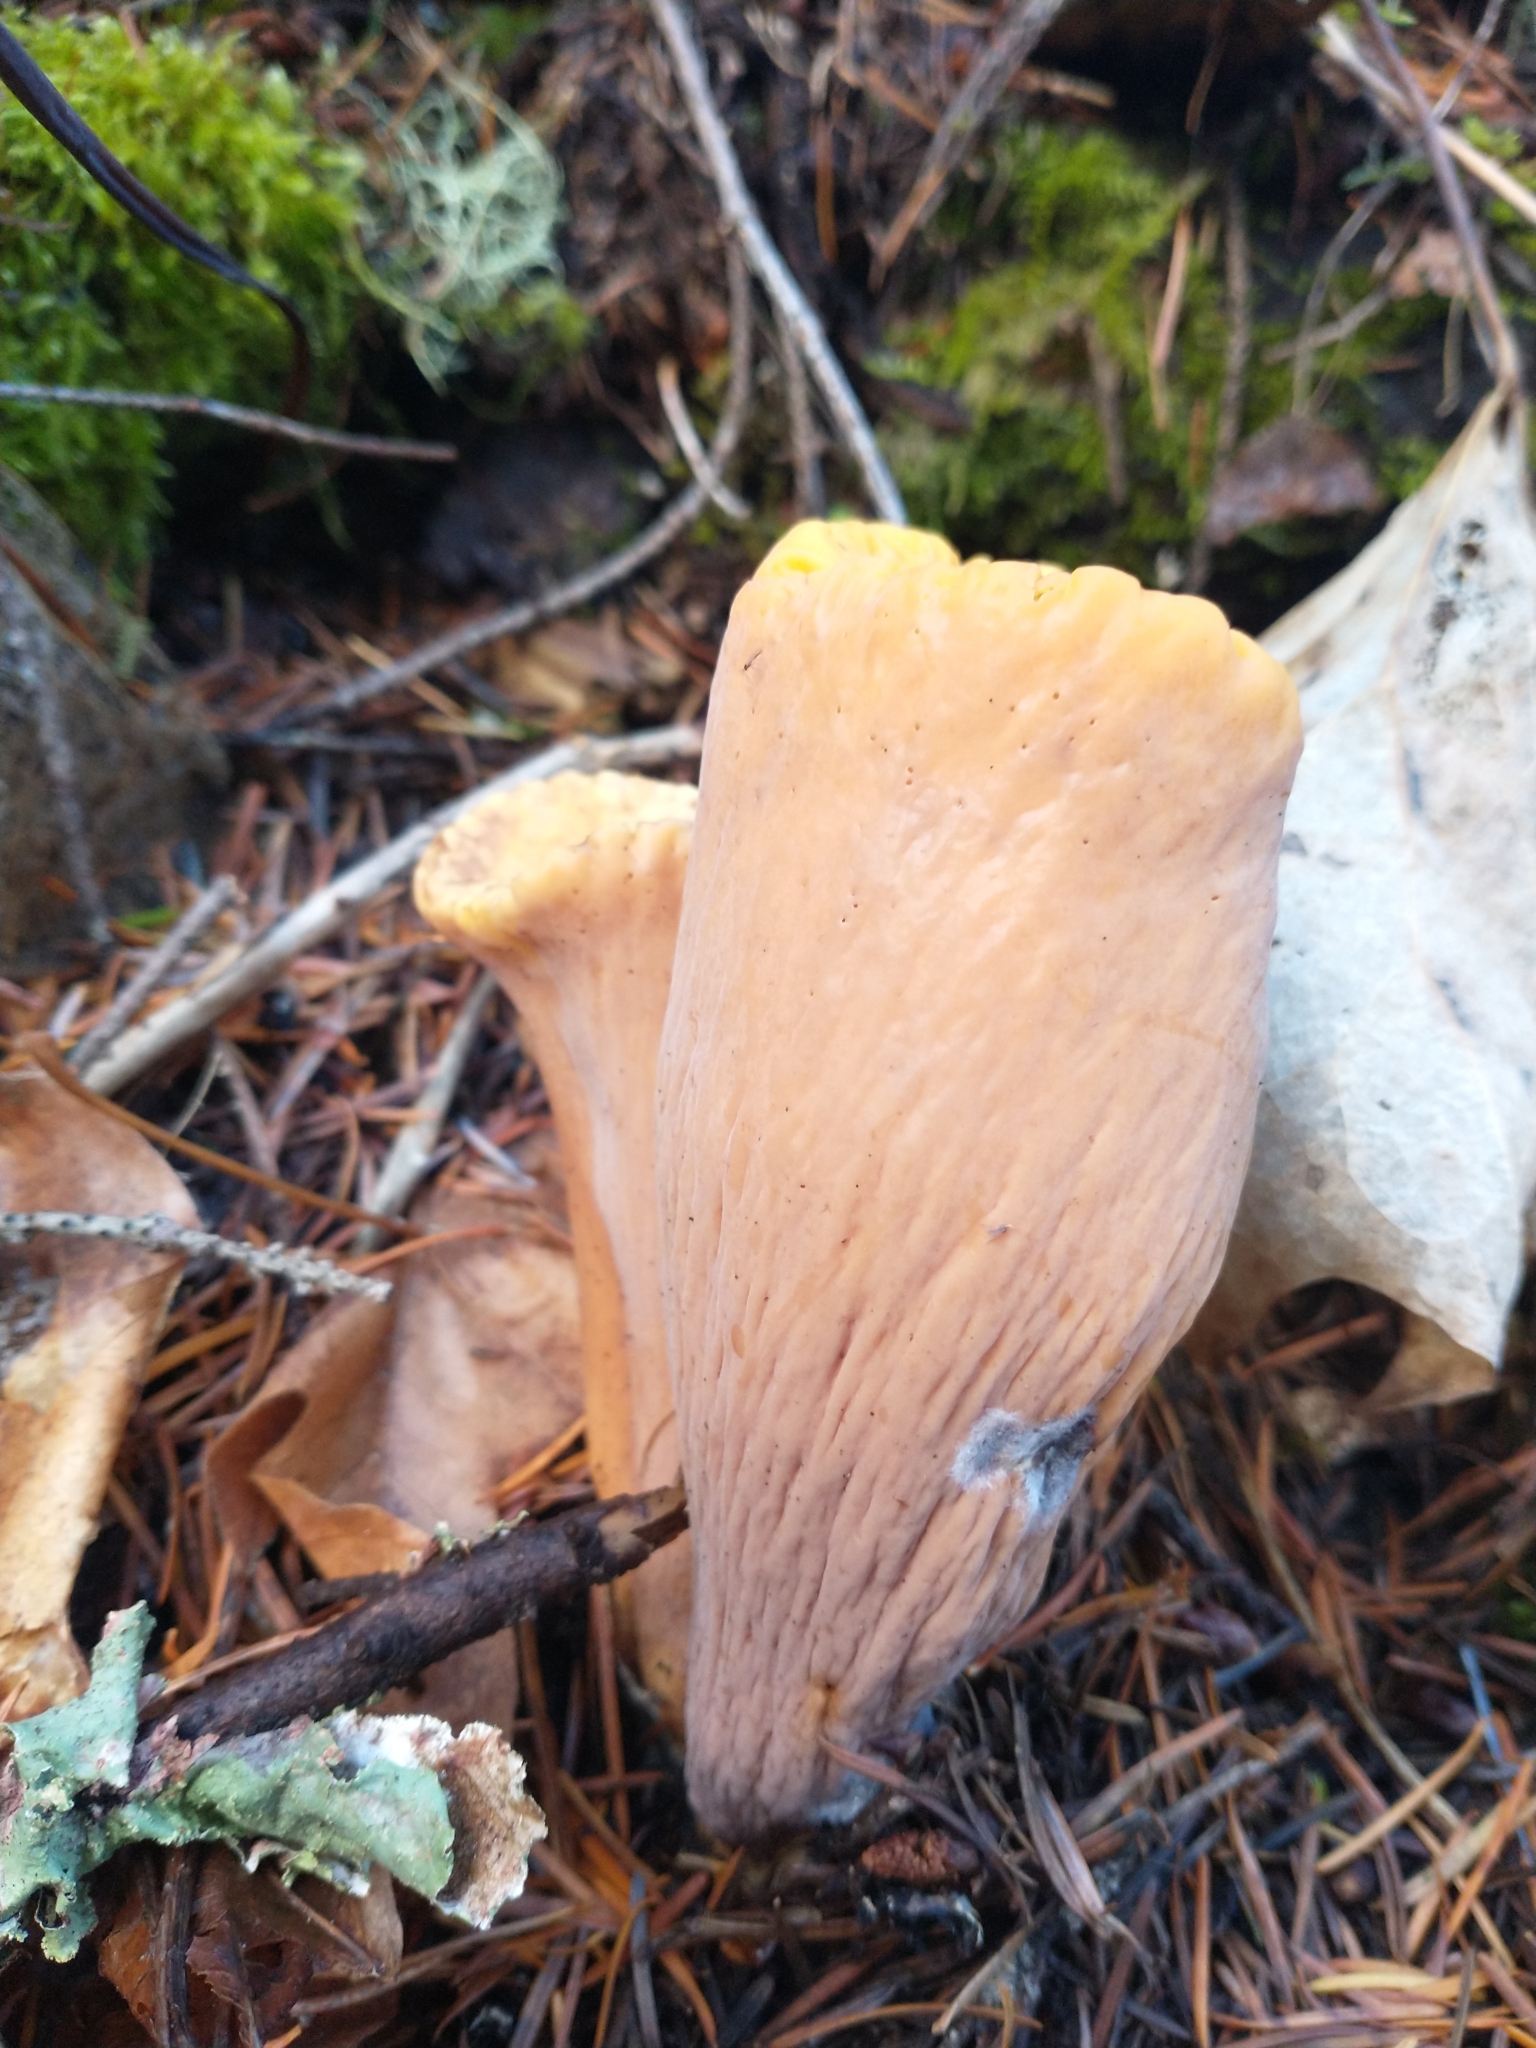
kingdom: Fungi
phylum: Basidiomycota
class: Agaricomycetes
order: Gomphales
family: Clavariadelphaceae
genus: Clavariadelphus
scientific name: Clavariadelphus truncatus
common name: Truncated club
